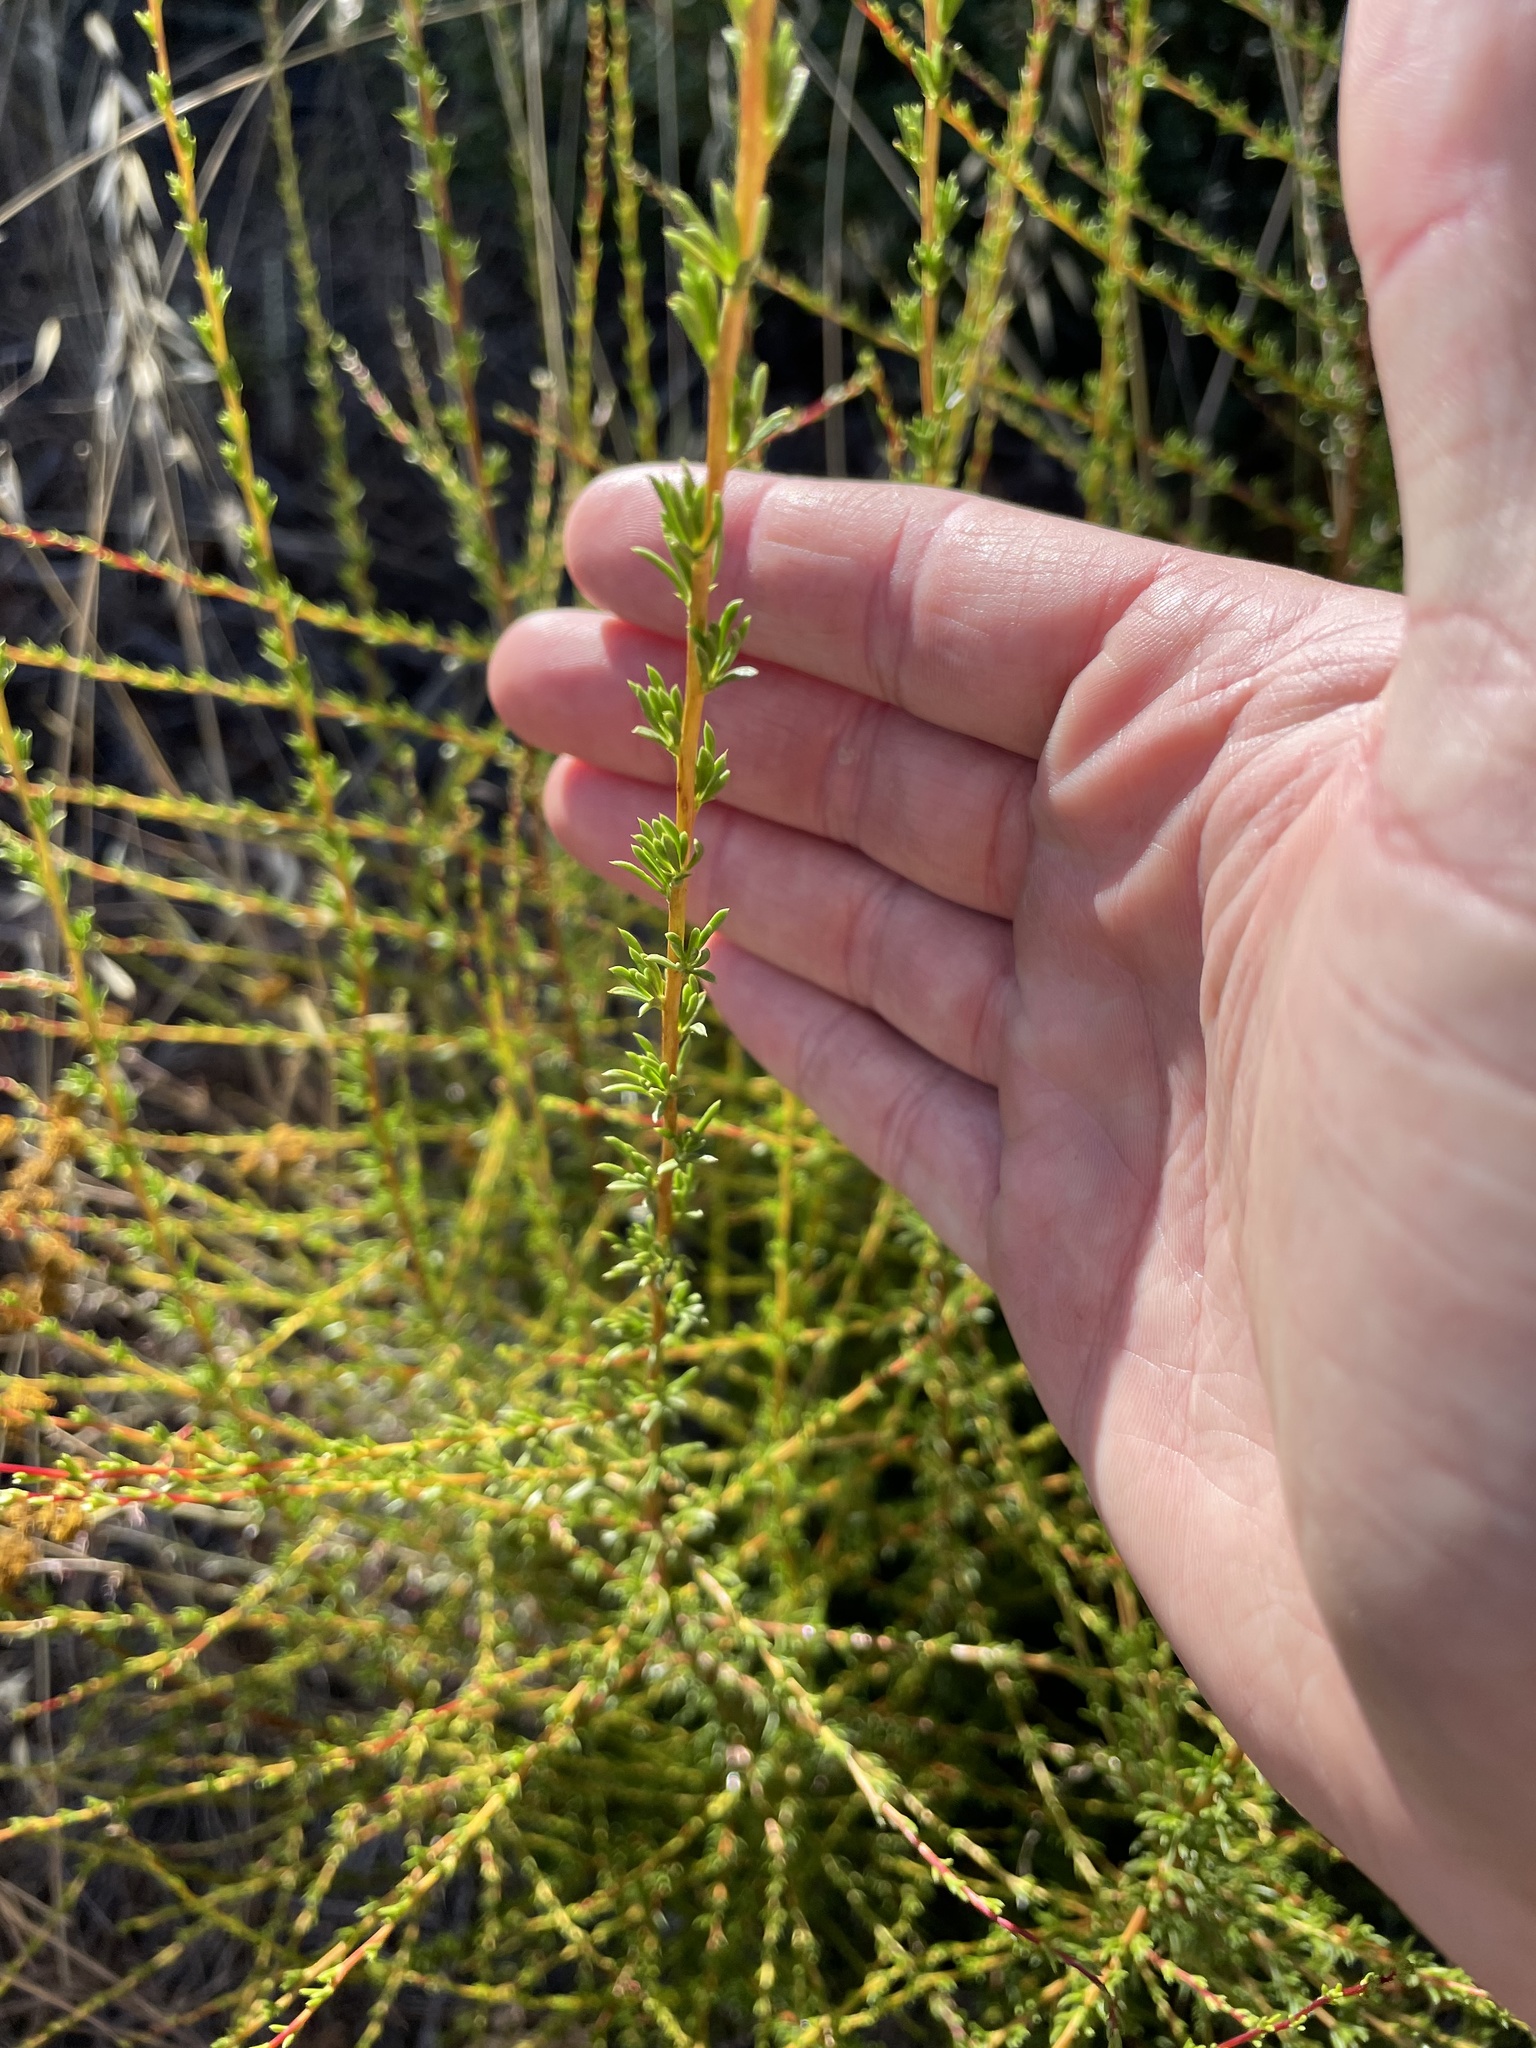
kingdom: Plantae
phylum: Tracheophyta
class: Magnoliopsida
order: Rosales
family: Rosaceae
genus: Adenostoma
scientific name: Adenostoma fasciculatum
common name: Chamise
